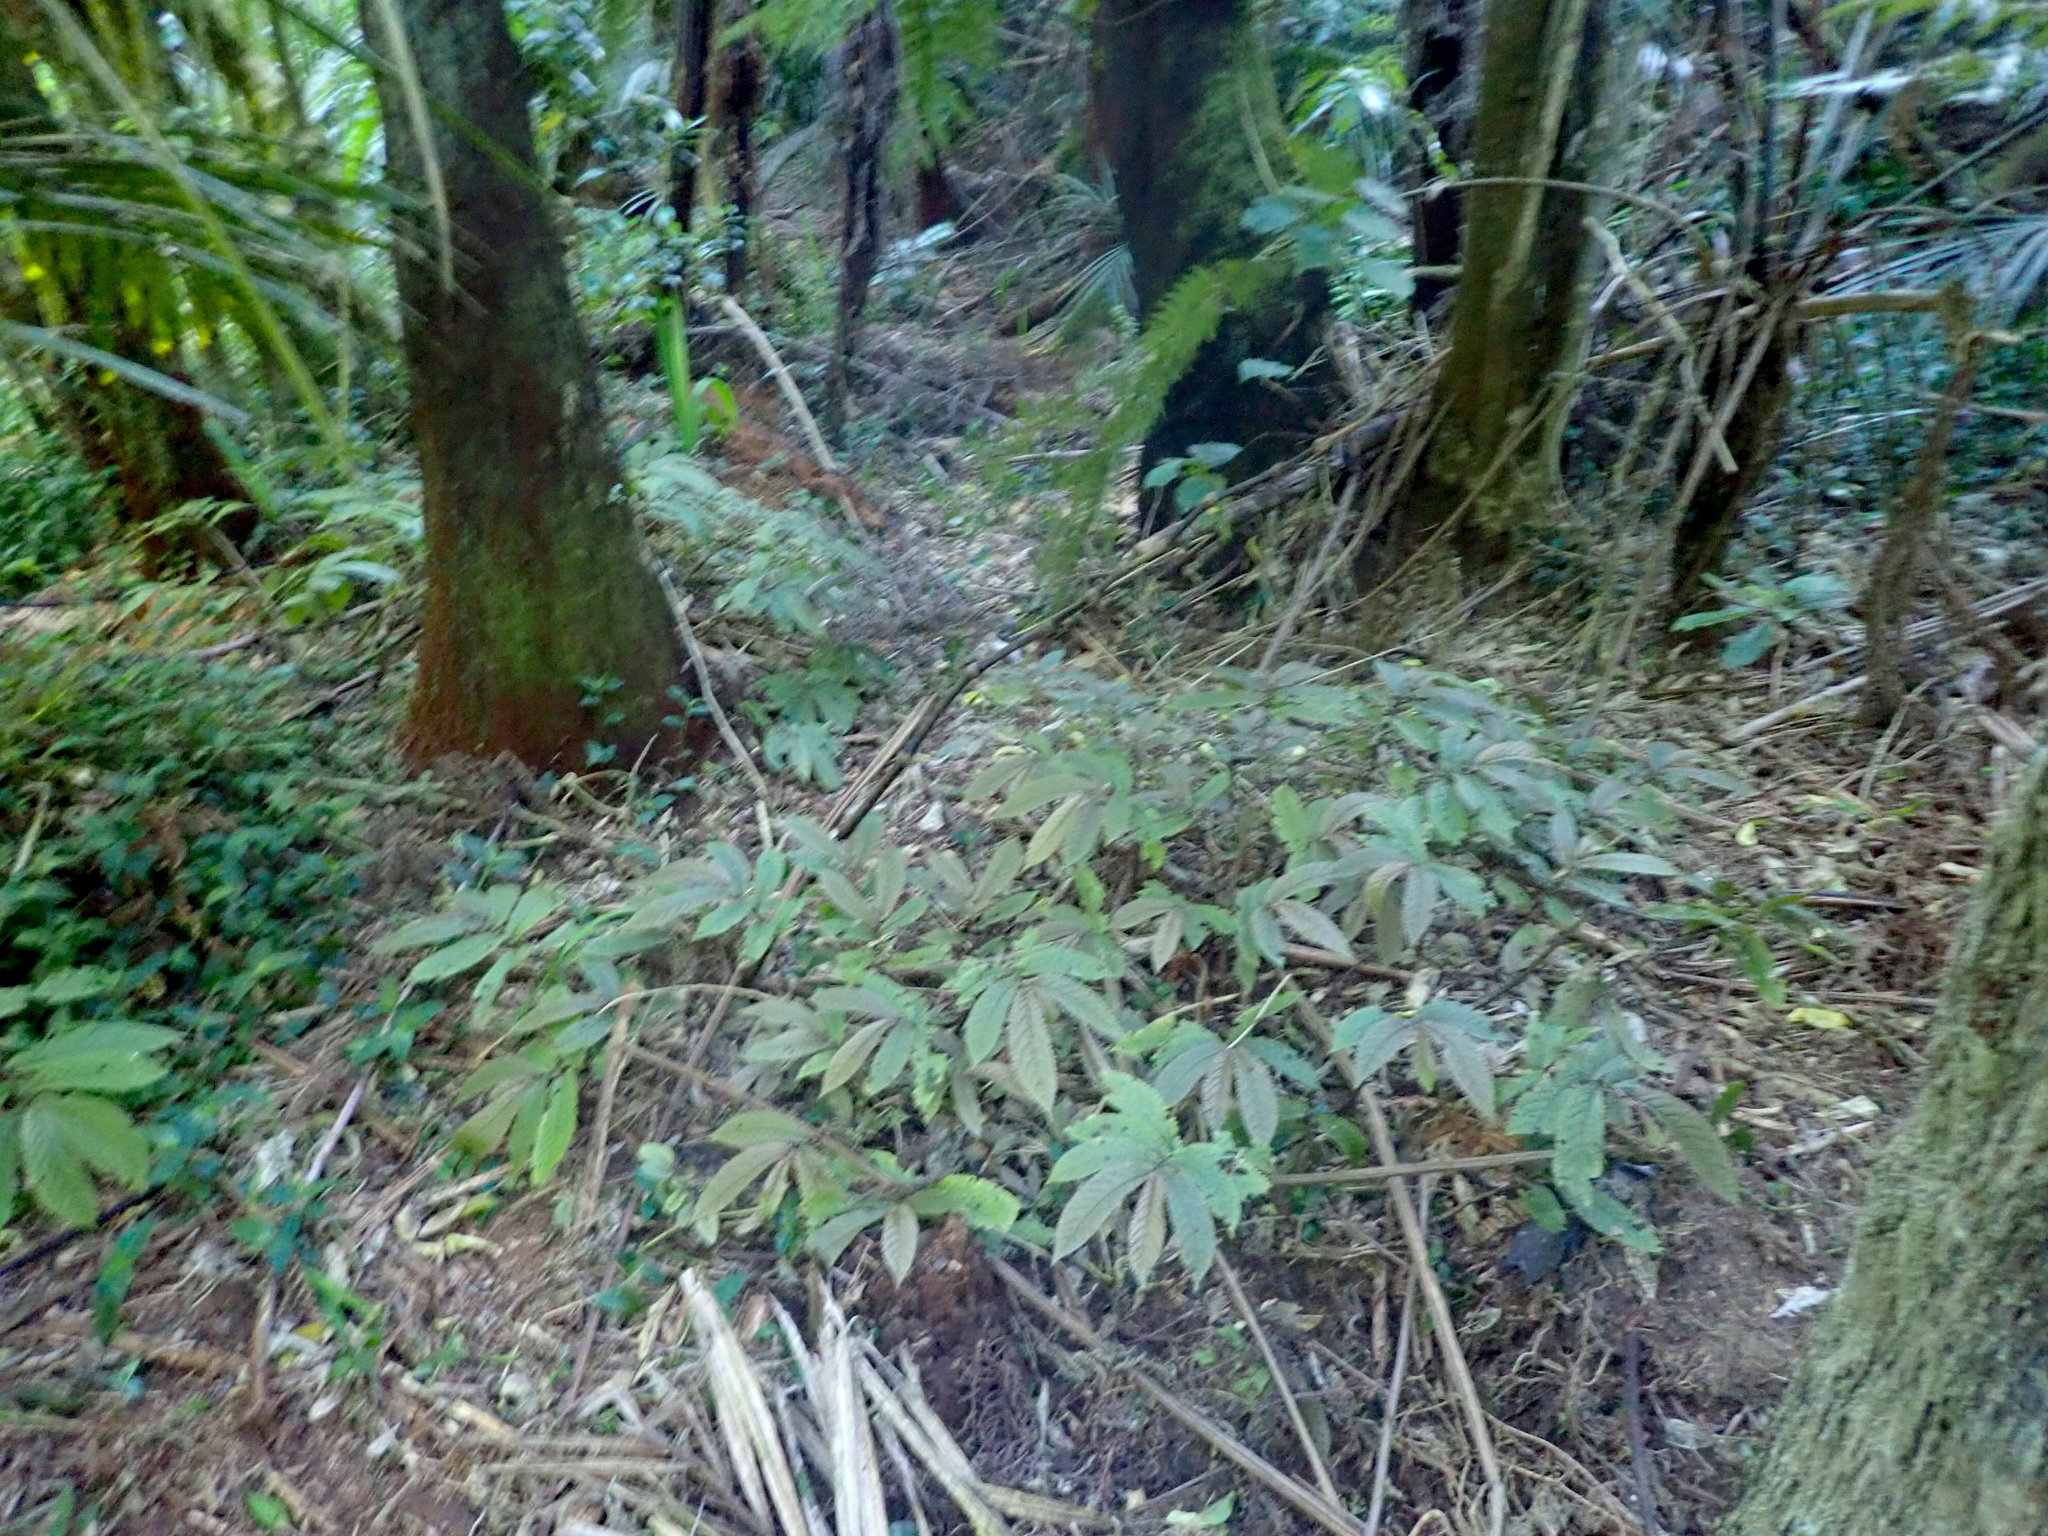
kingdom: Plantae
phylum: Tracheophyta
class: Magnoliopsida
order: Rosales
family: Urticaceae
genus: Elatostema
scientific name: Elatostema rugosum
